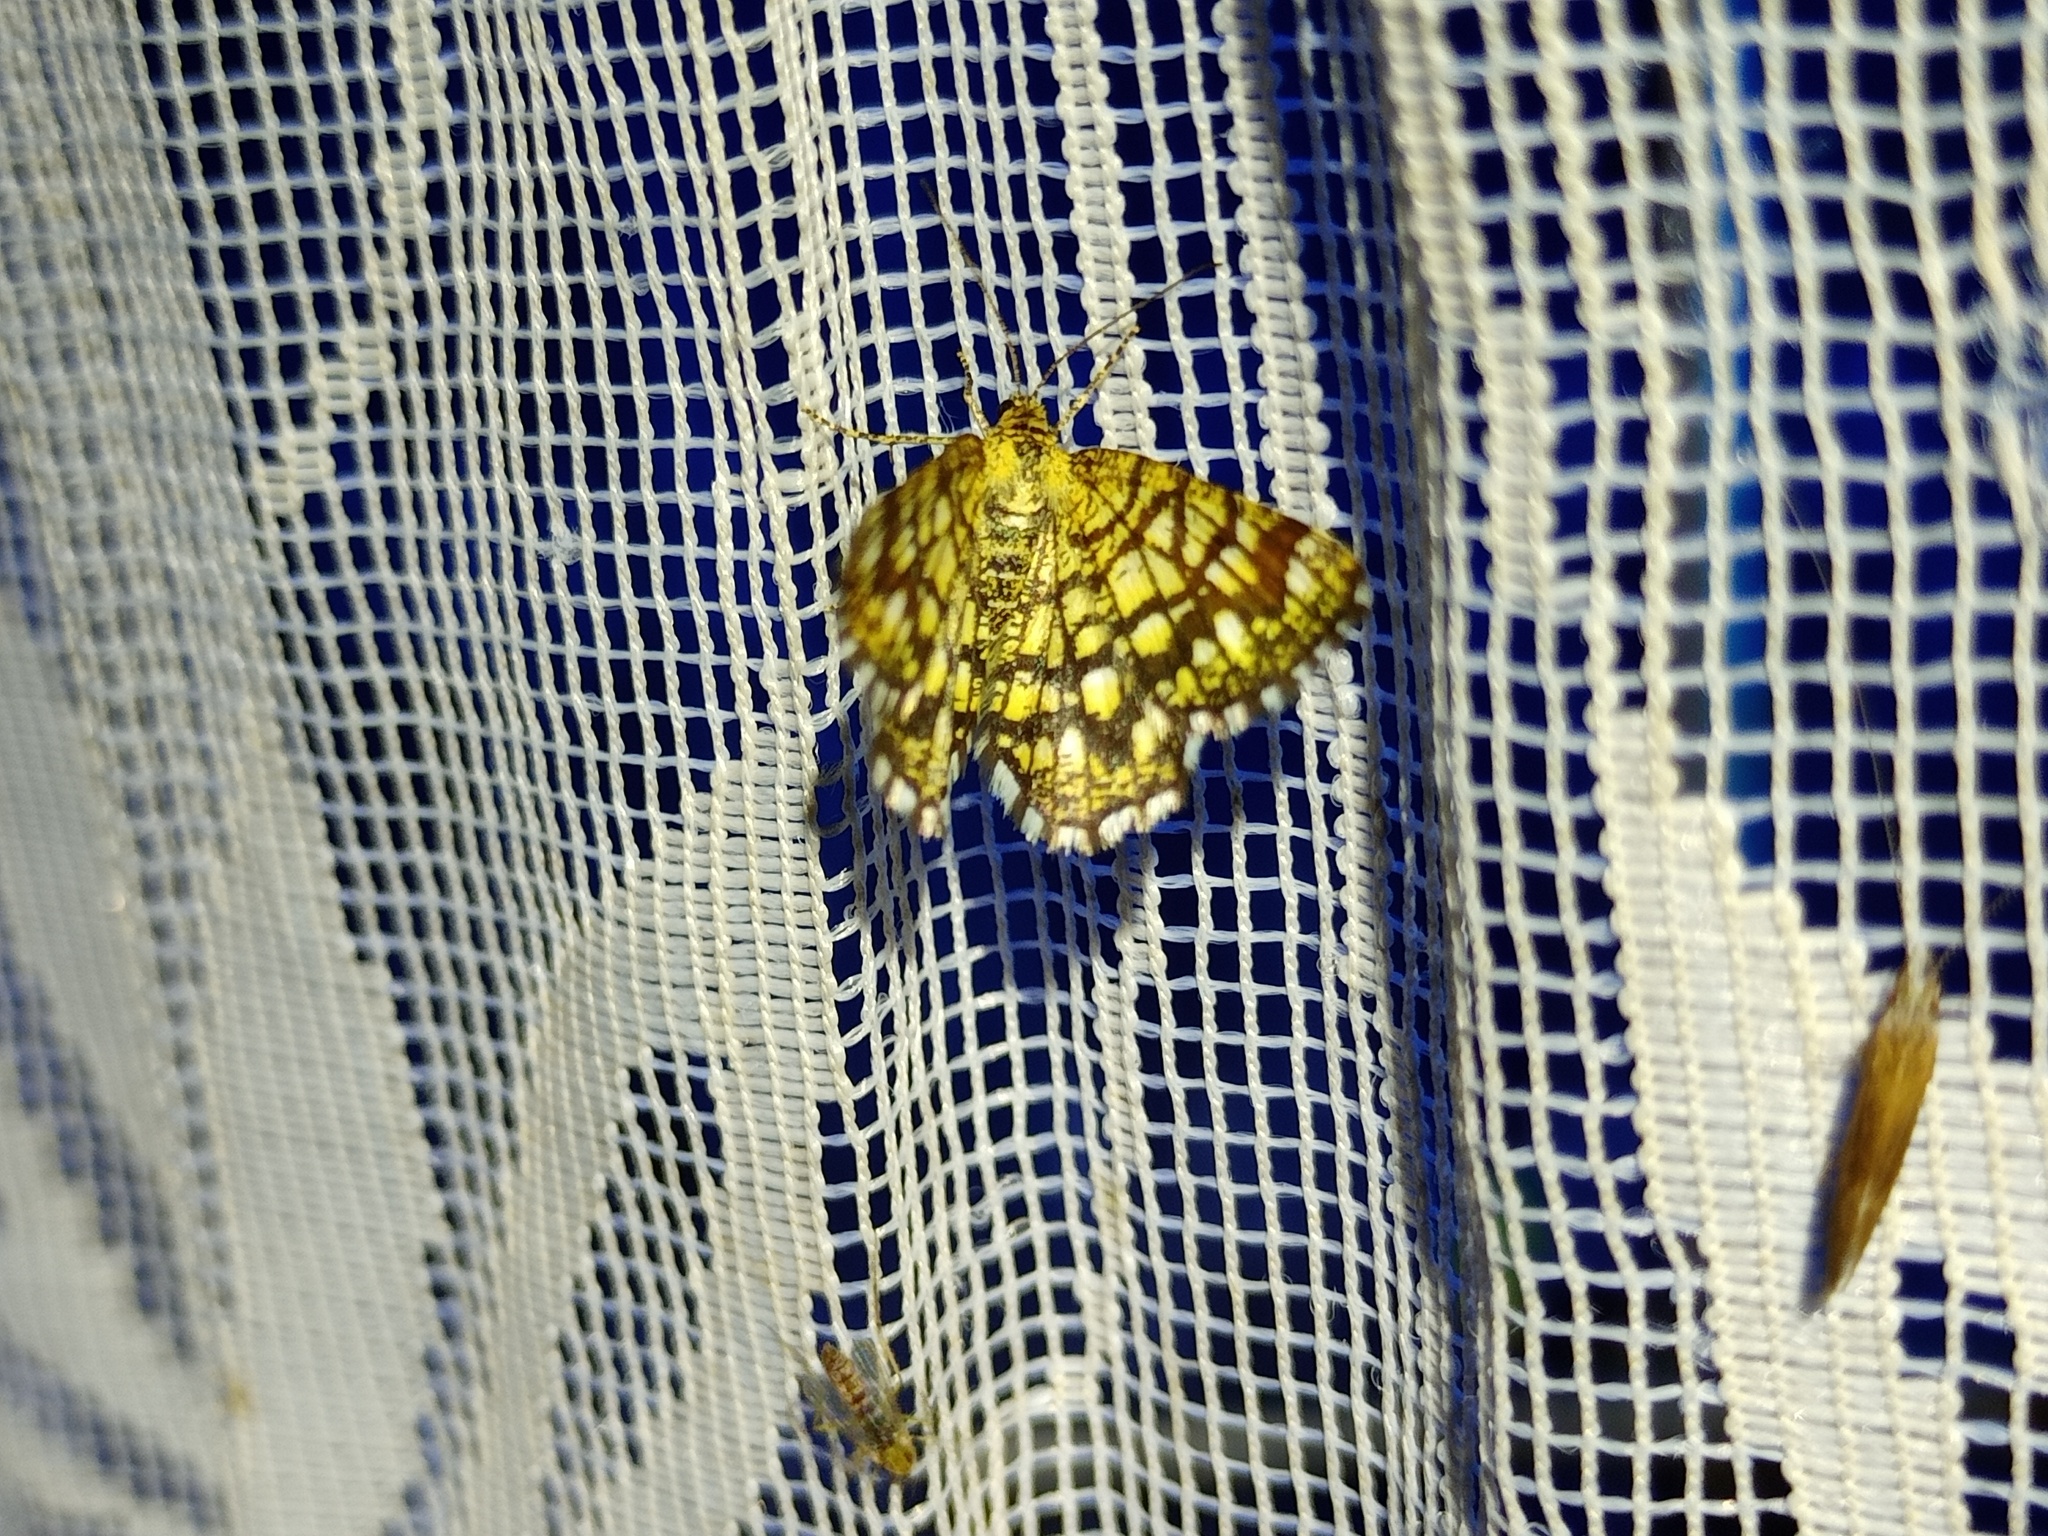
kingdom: Animalia
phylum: Arthropoda
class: Insecta
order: Lepidoptera
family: Geometridae
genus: Chiasmia
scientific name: Chiasmia clathrata
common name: Latticed heath
